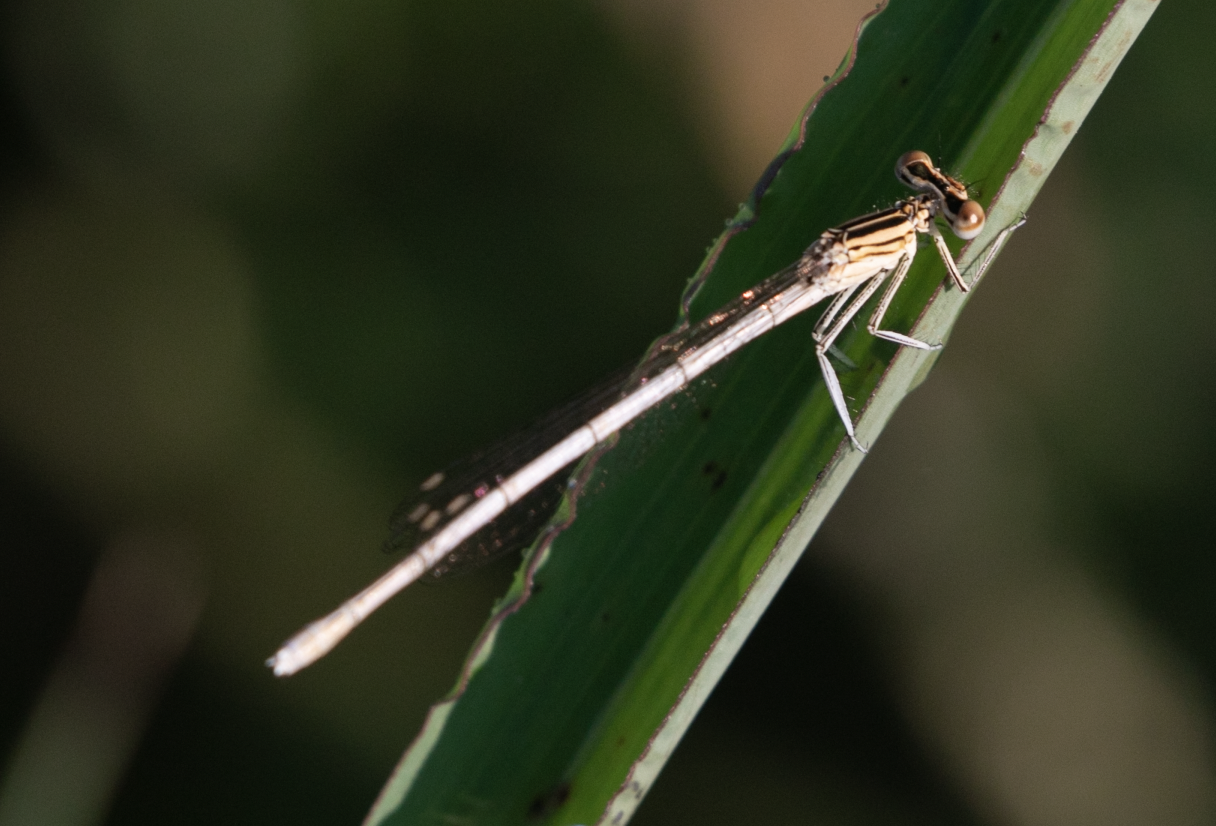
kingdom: Animalia
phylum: Arthropoda
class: Insecta
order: Odonata
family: Platycnemididae
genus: Platycnemis
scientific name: Platycnemis pennipes
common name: White-legged damselfly
